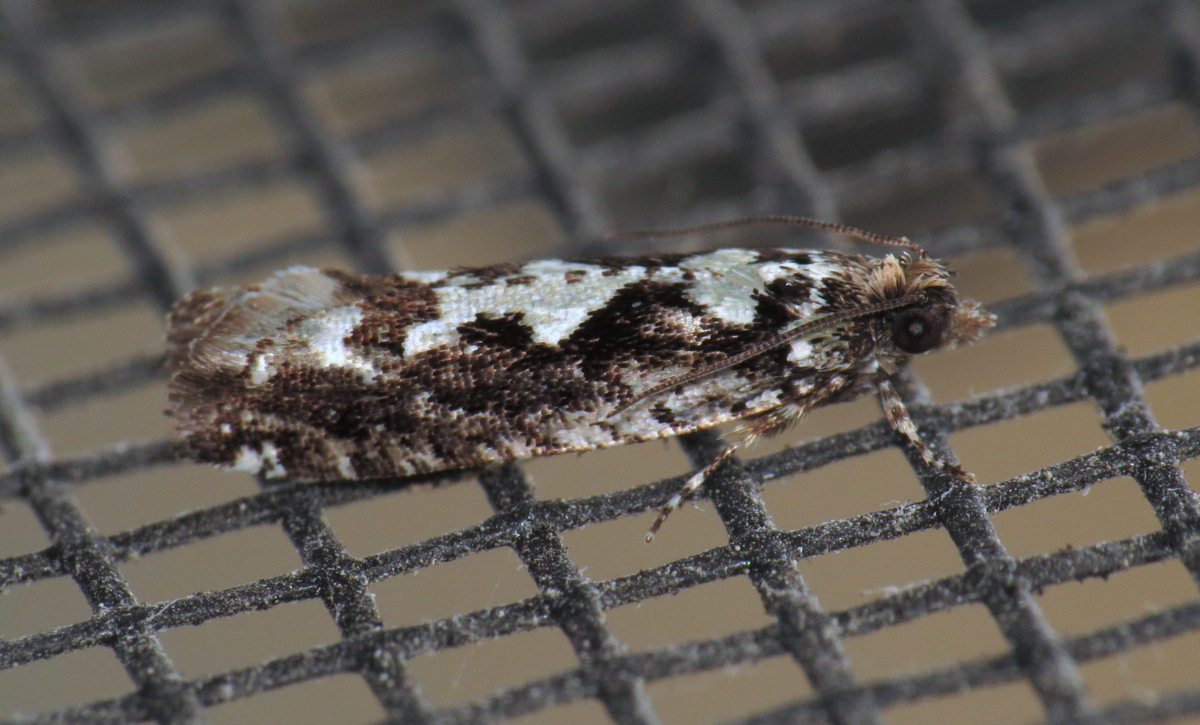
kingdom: Animalia
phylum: Arthropoda
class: Insecta
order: Lepidoptera
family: Tortricidae
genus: Chimoptesis
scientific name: Chimoptesis pennsylvaniana
